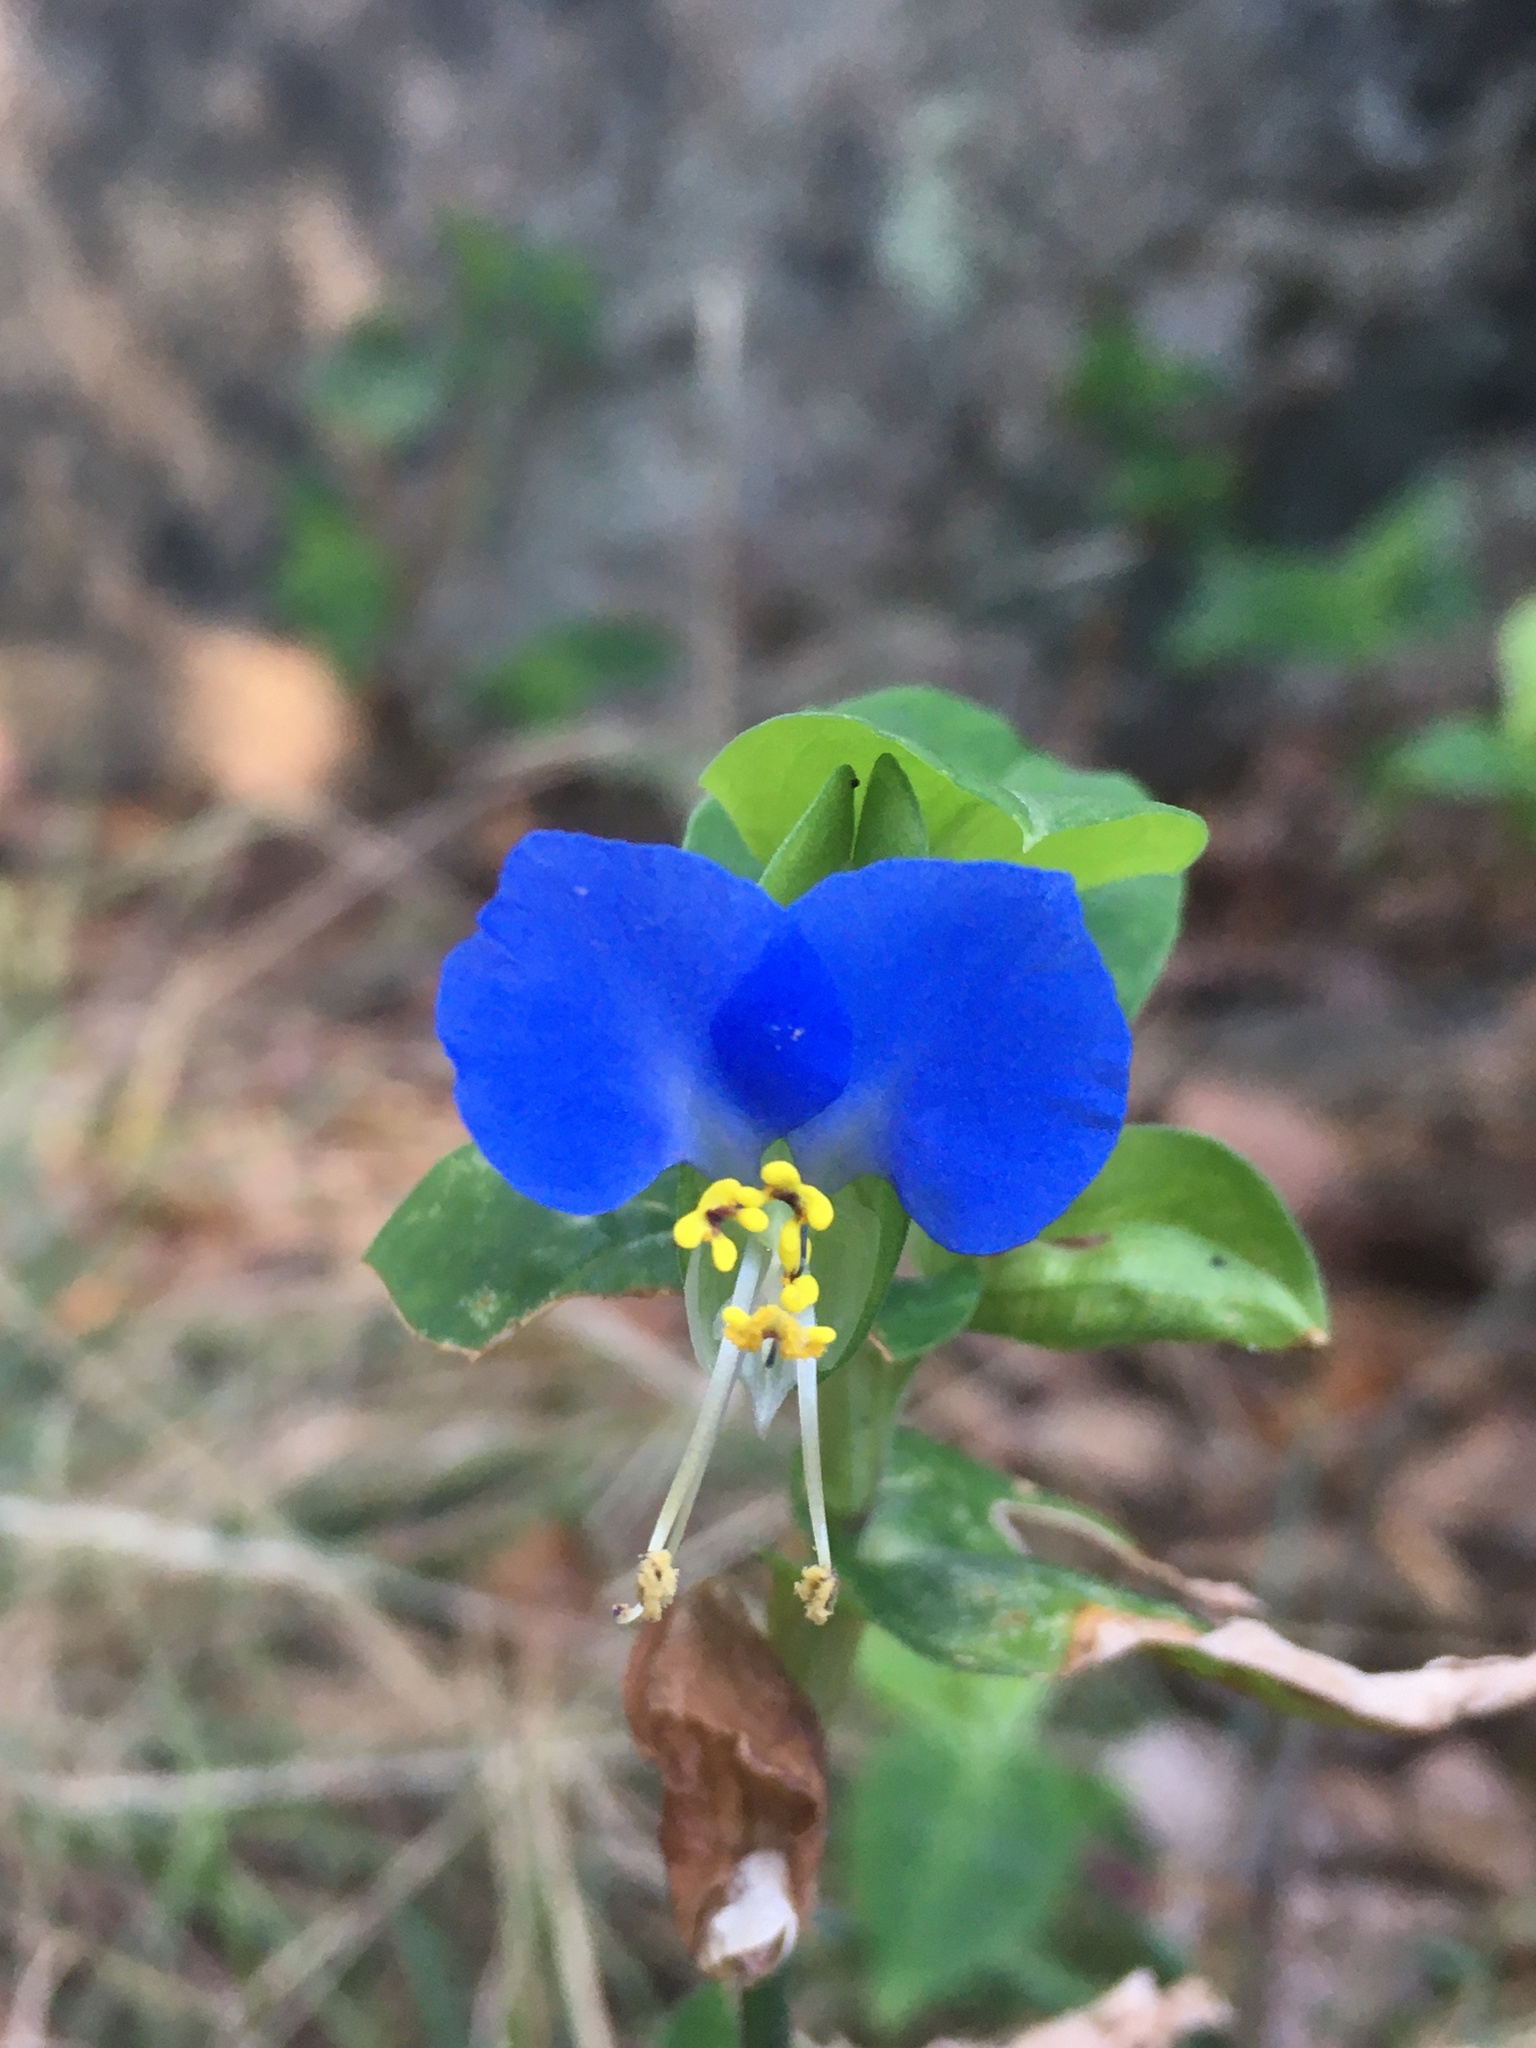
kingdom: Plantae
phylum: Tracheophyta
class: Liliopsida
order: Commelinales
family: Commelinaceae
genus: Commelina
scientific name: Commelina communis
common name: Asiatic dayflower
